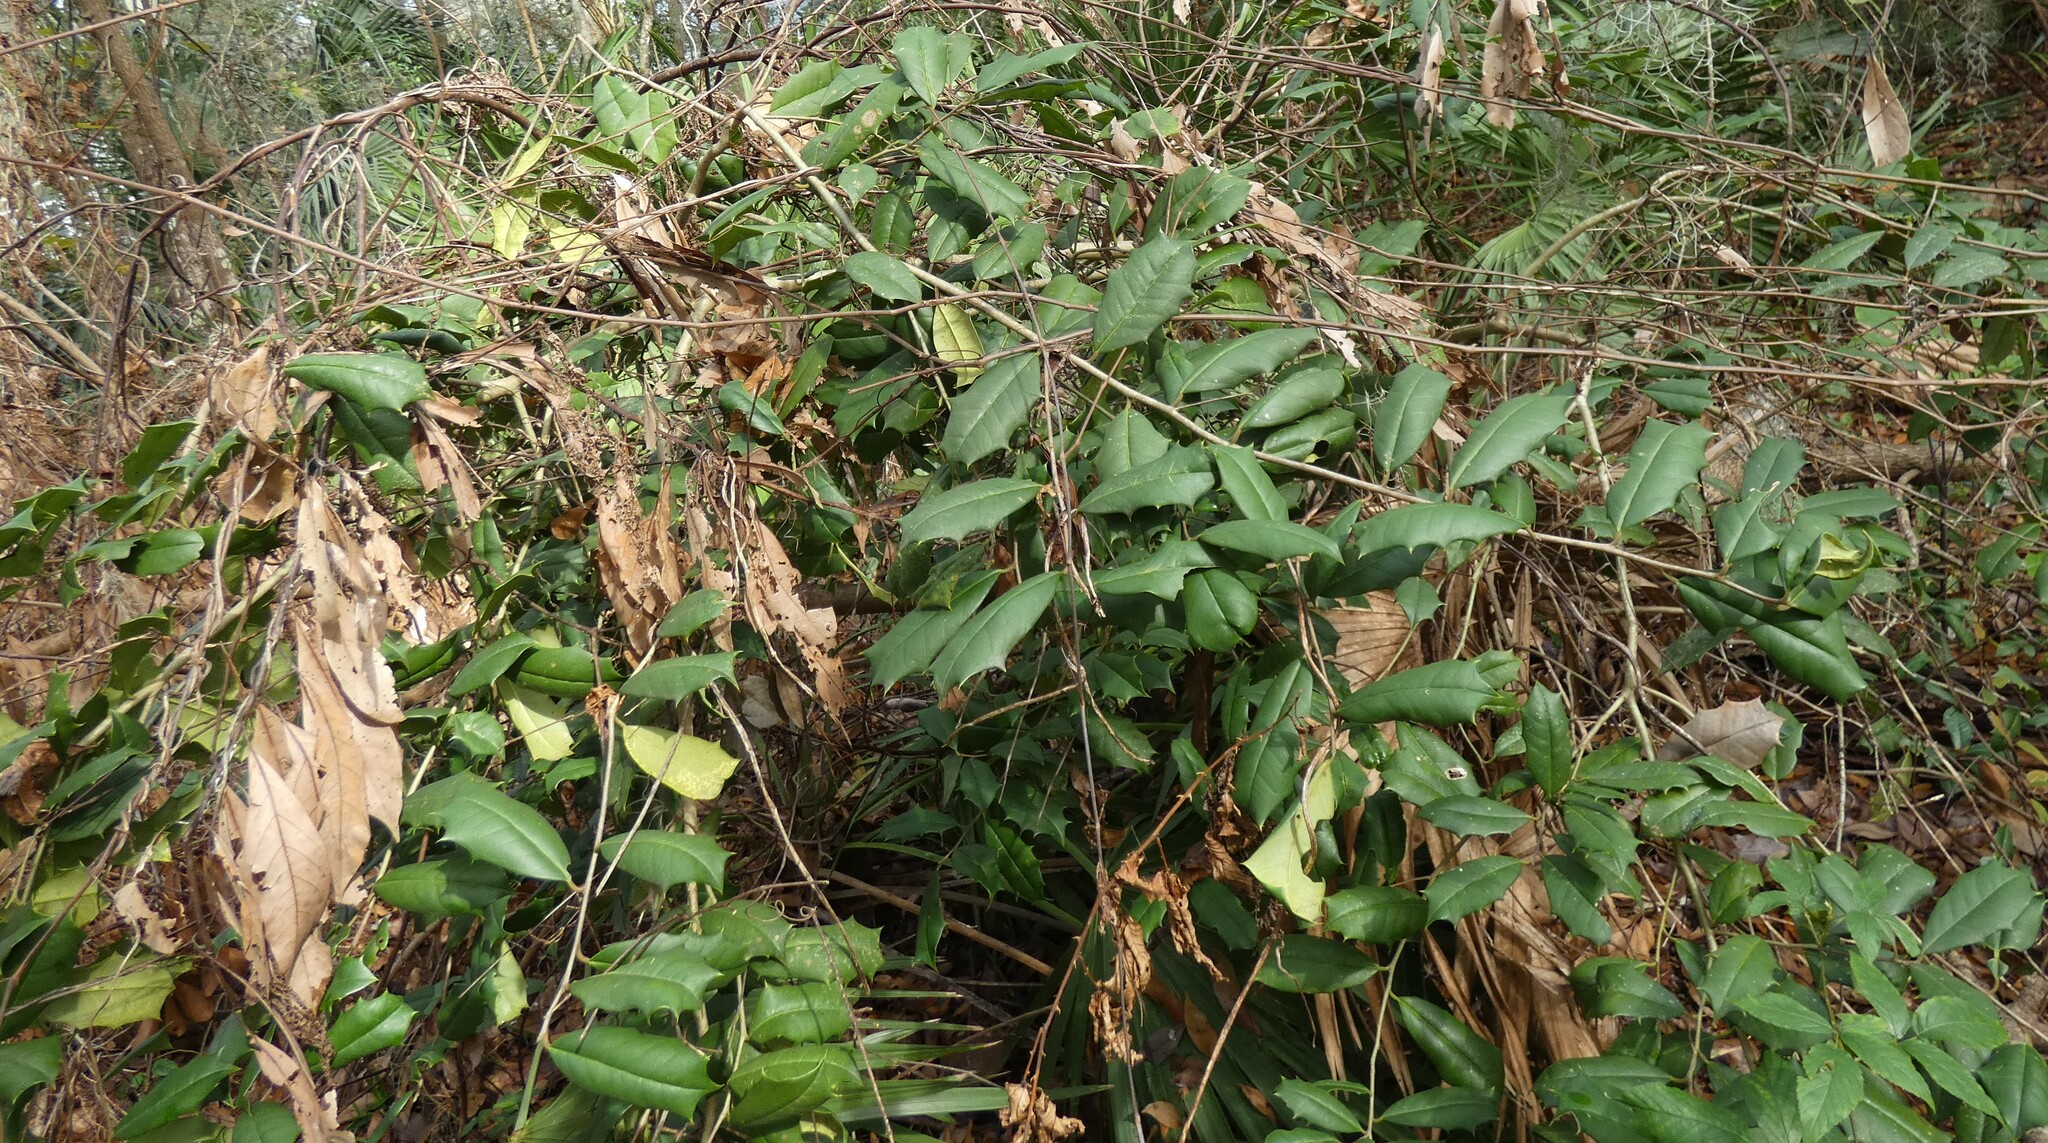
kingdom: Plantae
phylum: Tracheophyta
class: Magnoliopsida
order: Aquifoliales
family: Aquifoliaceae
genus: Ilex
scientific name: Ilex opaca
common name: American holly
